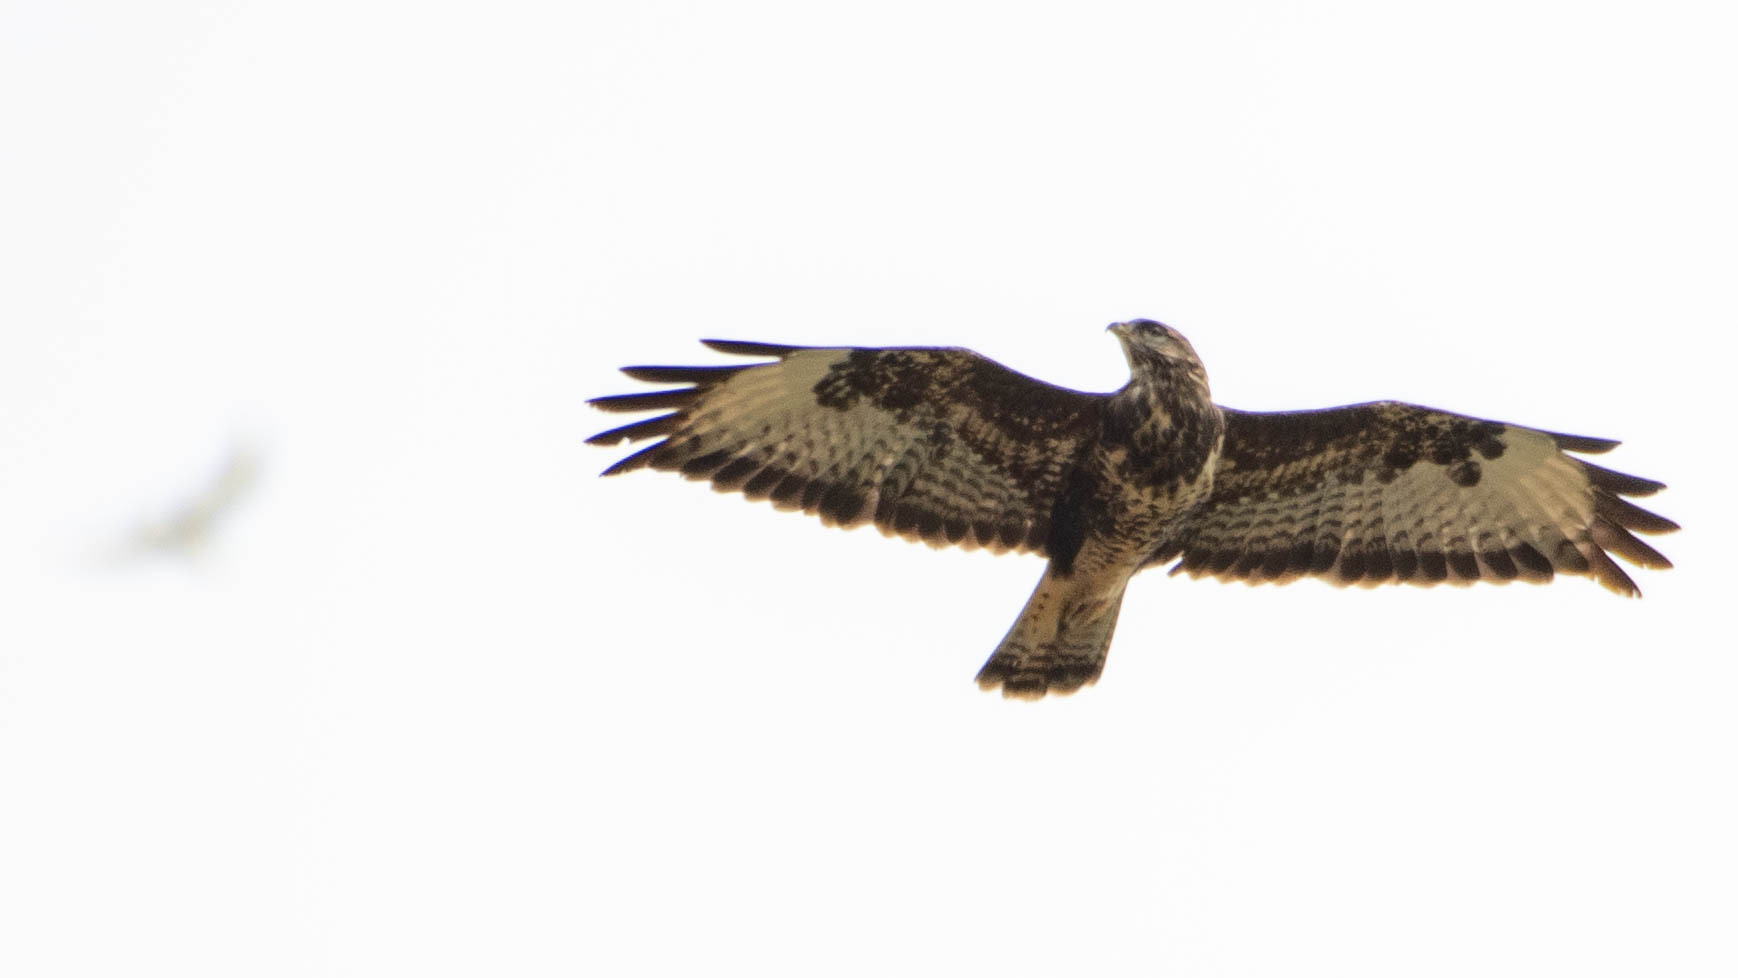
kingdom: Animalia
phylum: Chordata
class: Aves
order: Accipitriformes
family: Accipitridae
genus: Buteo
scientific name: Buteo buteo
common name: Common buzzard
